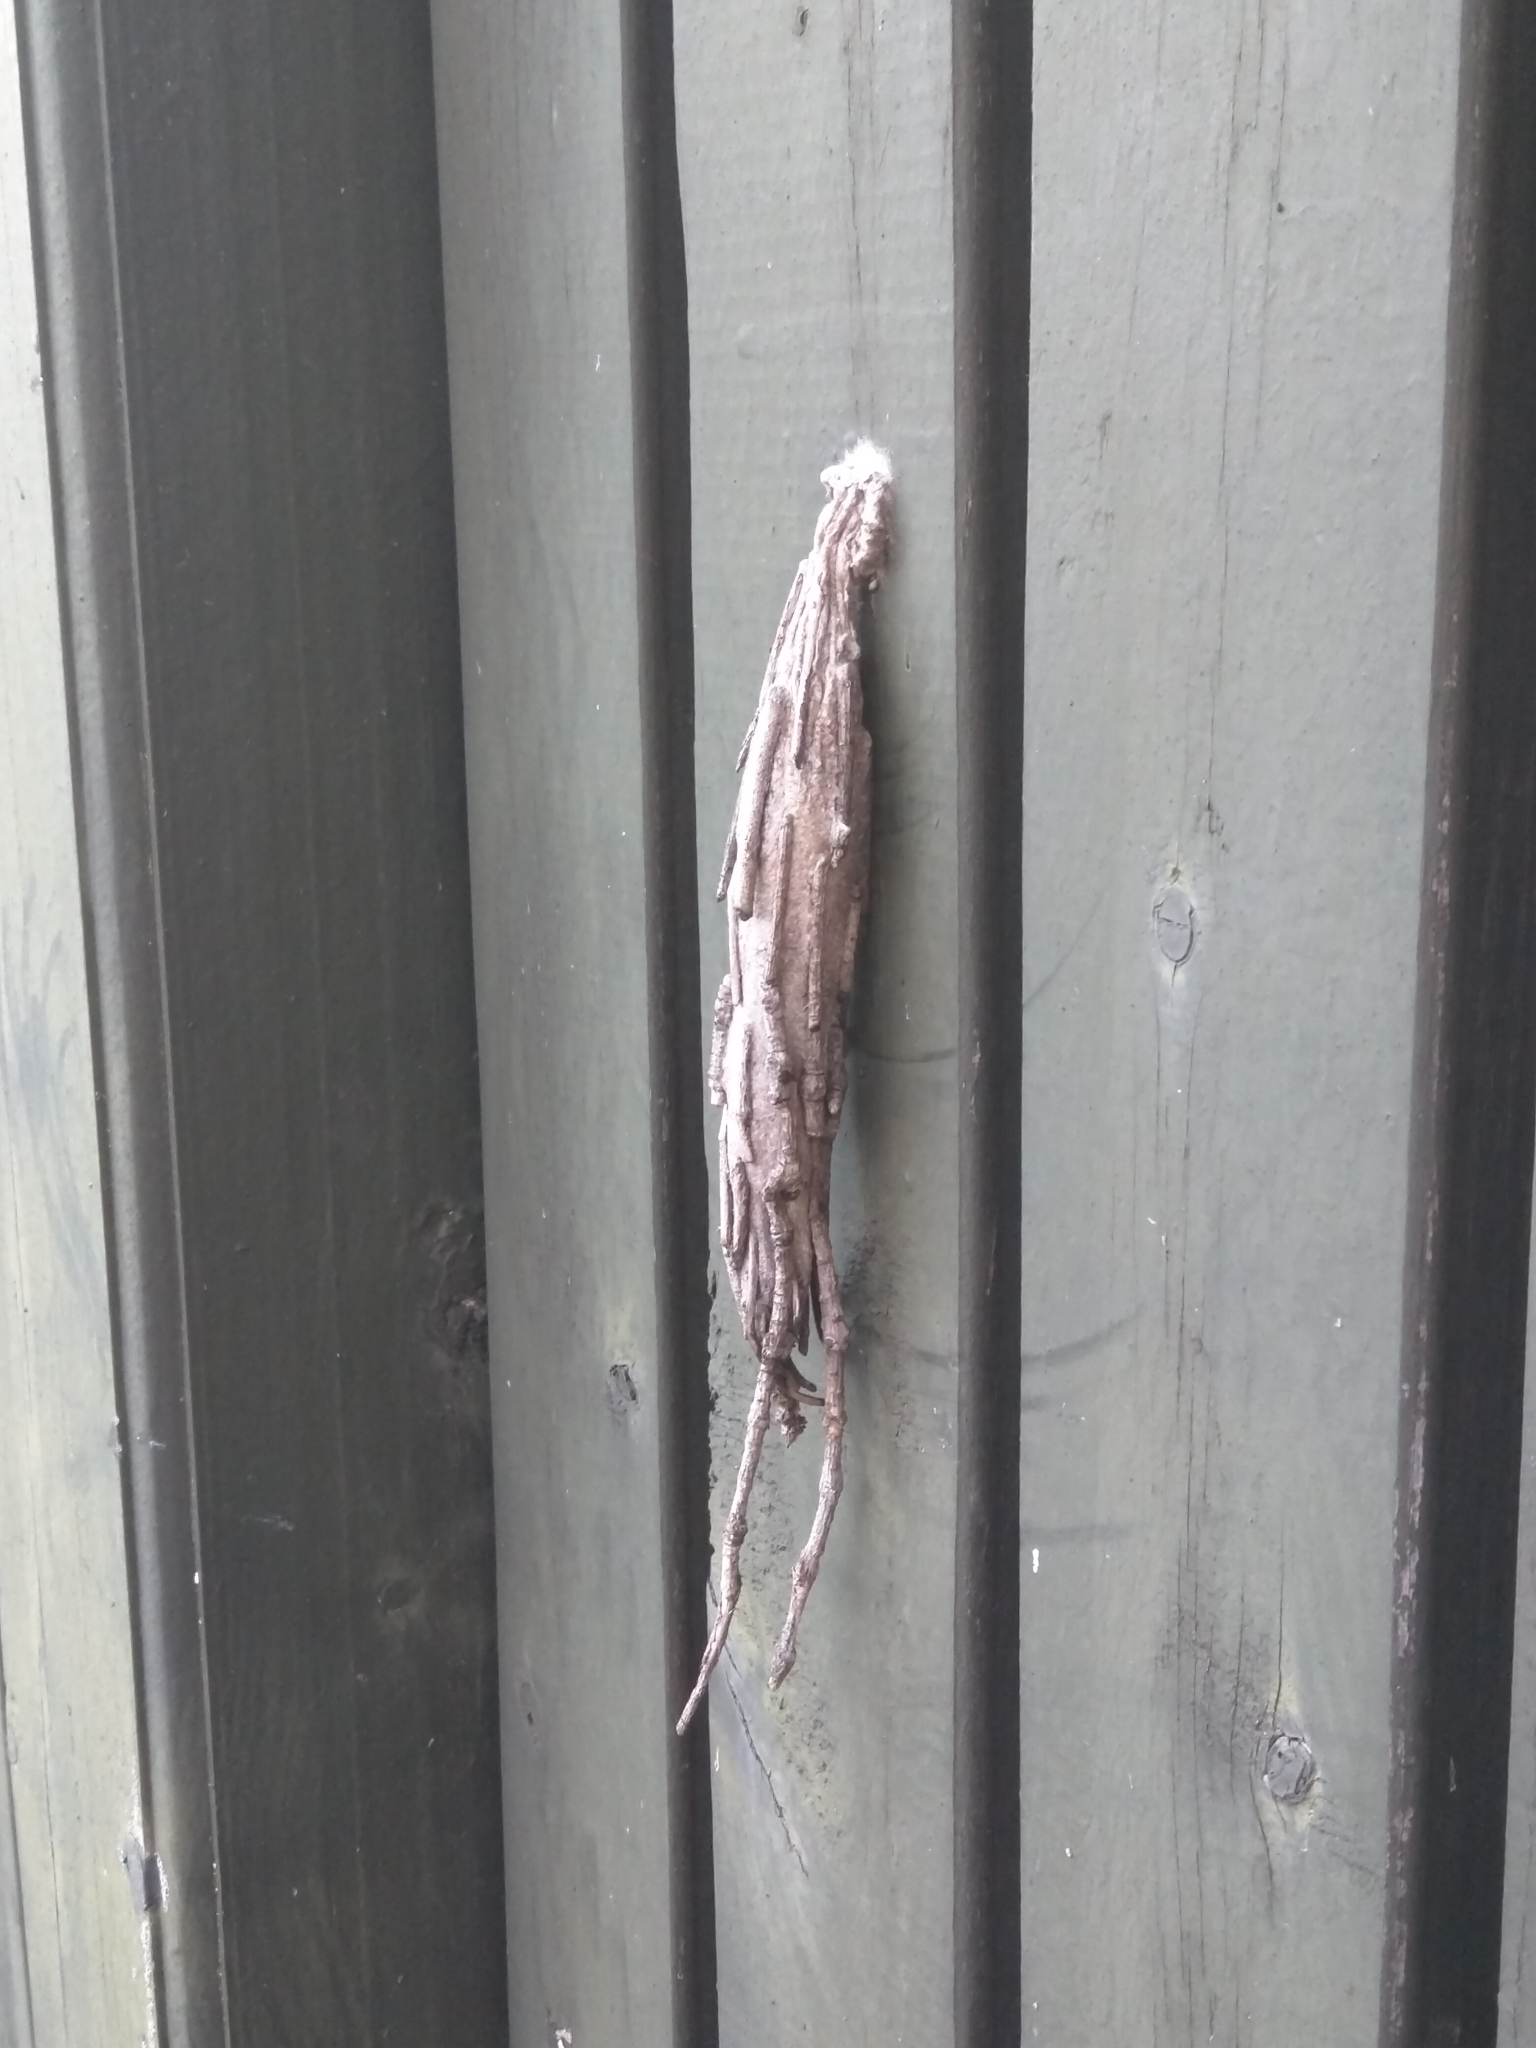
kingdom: Animalia
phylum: Arthropoda
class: Insecta
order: Lepidoptera
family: Psychidae
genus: Metura
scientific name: Metura elongatus
